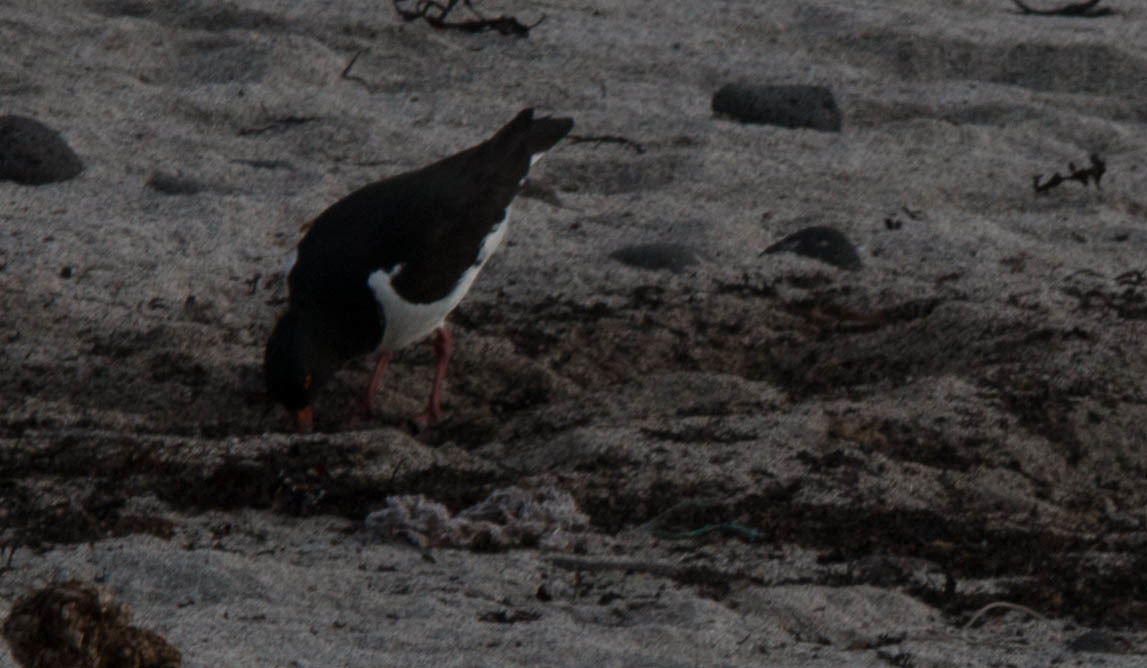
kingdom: Animalia
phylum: Chordata
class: Aves
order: Charadriiformes
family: Haematopodidae
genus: Haematopus
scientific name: Haematopus ostralegus
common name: Eurasian oystercatcher
